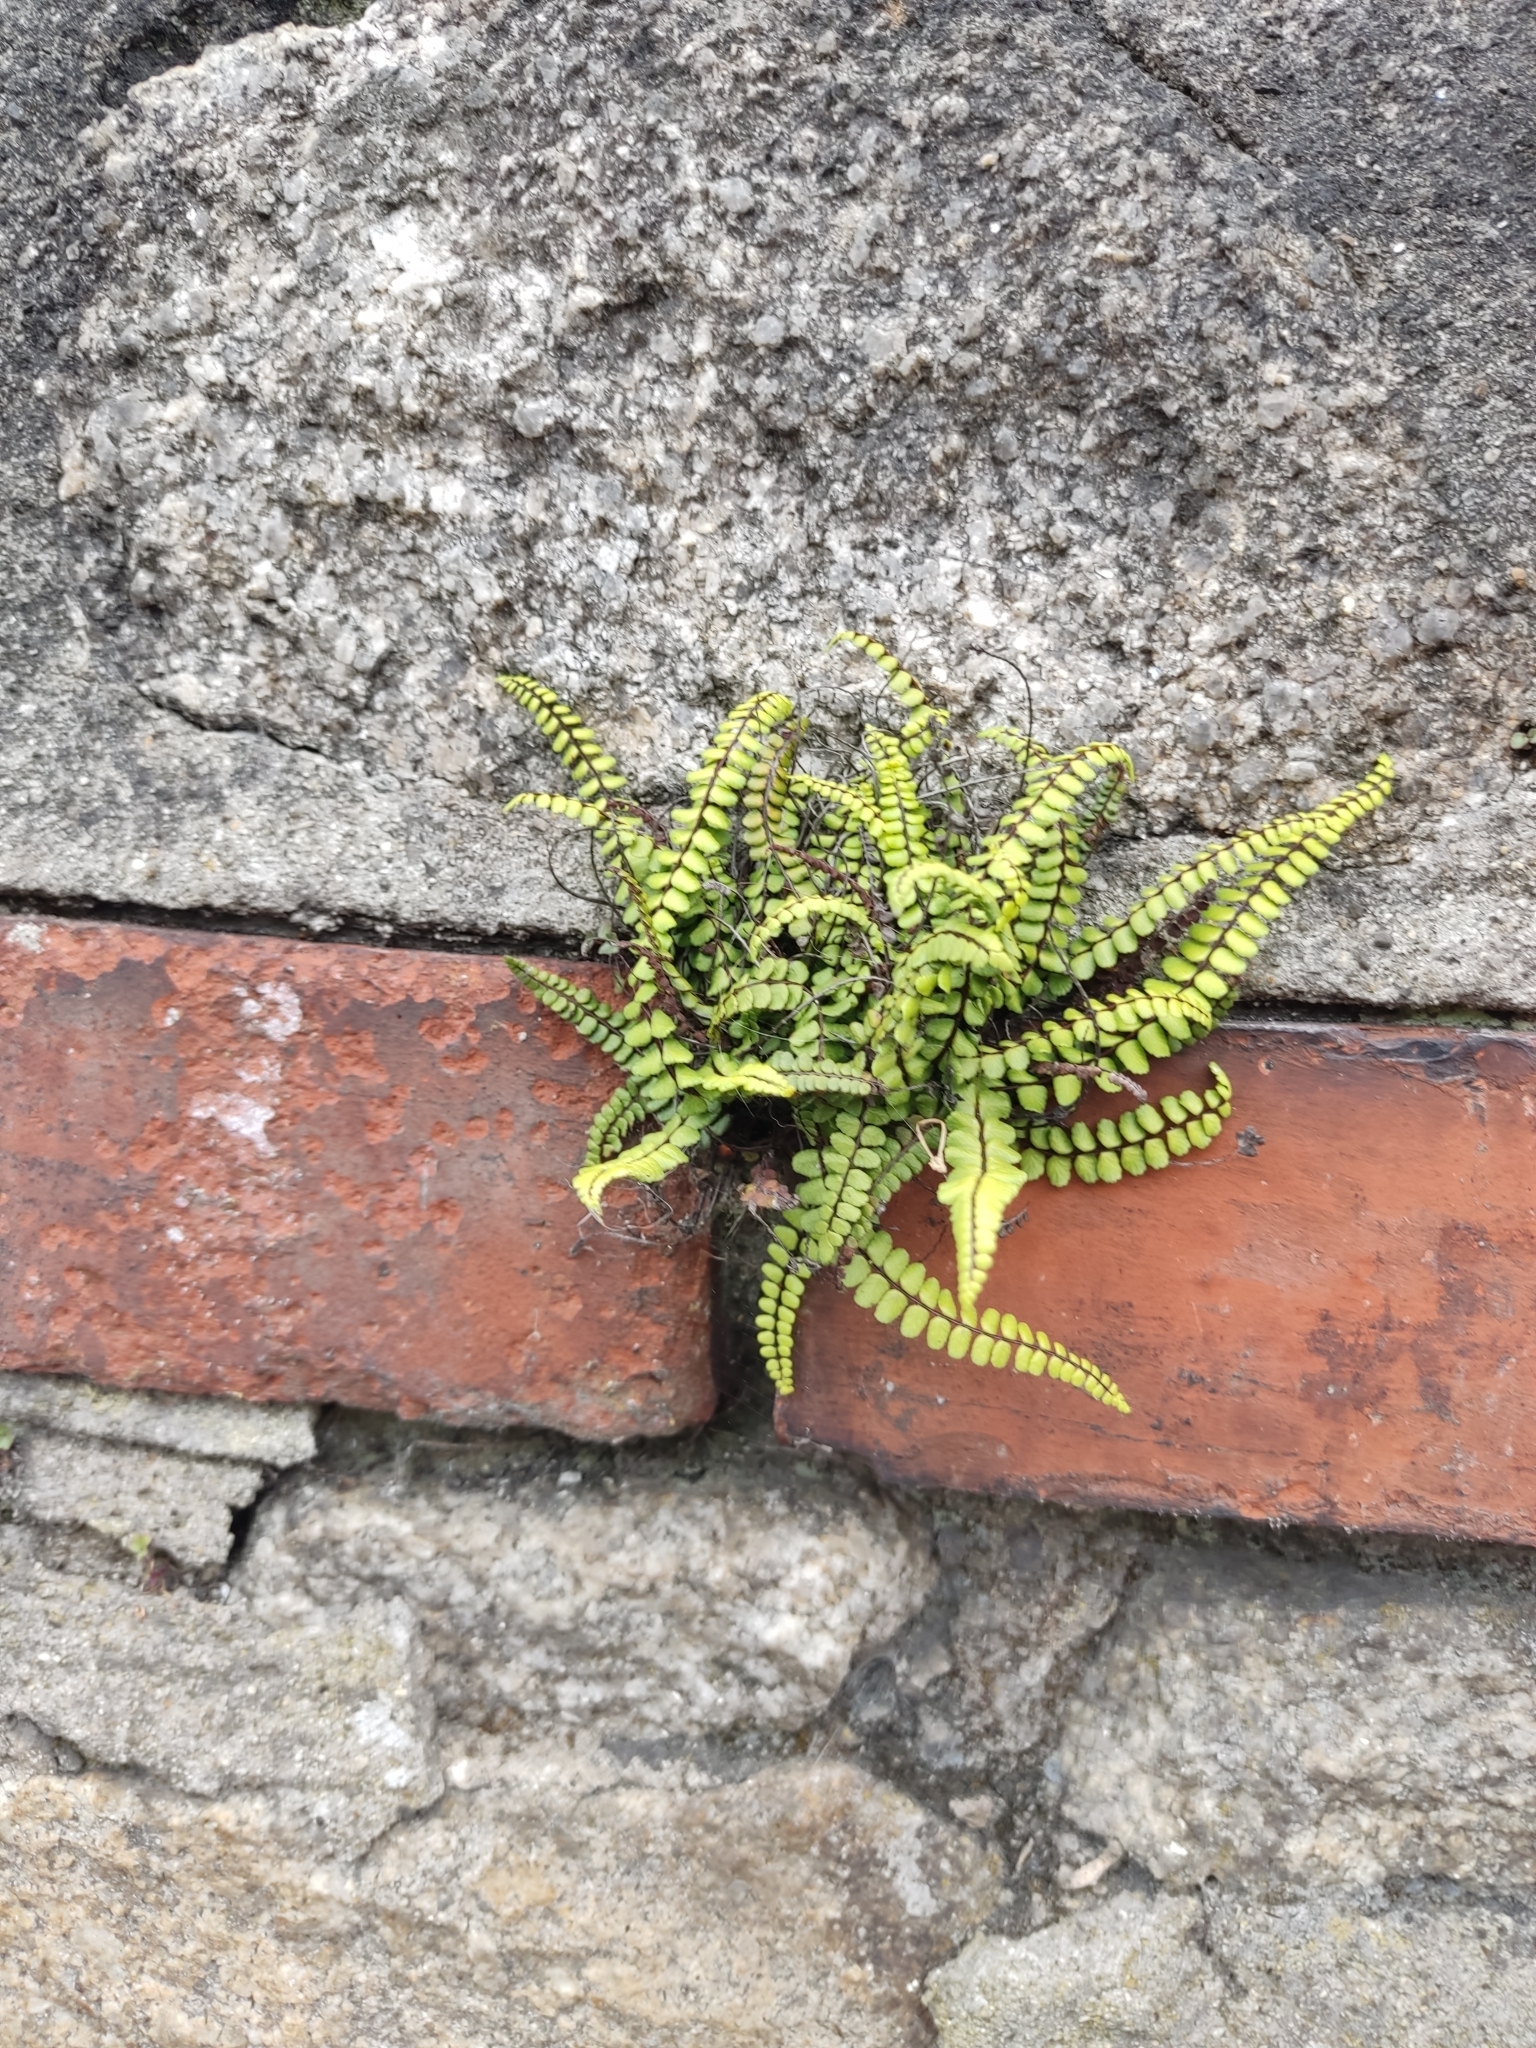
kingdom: Plantae
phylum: Tracheophyta
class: Polypodiopsida
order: Polypodiales
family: Aspleniaceae
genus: Asplenium
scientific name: Asplenium trichomanes
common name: Maidenhair spleenwort
